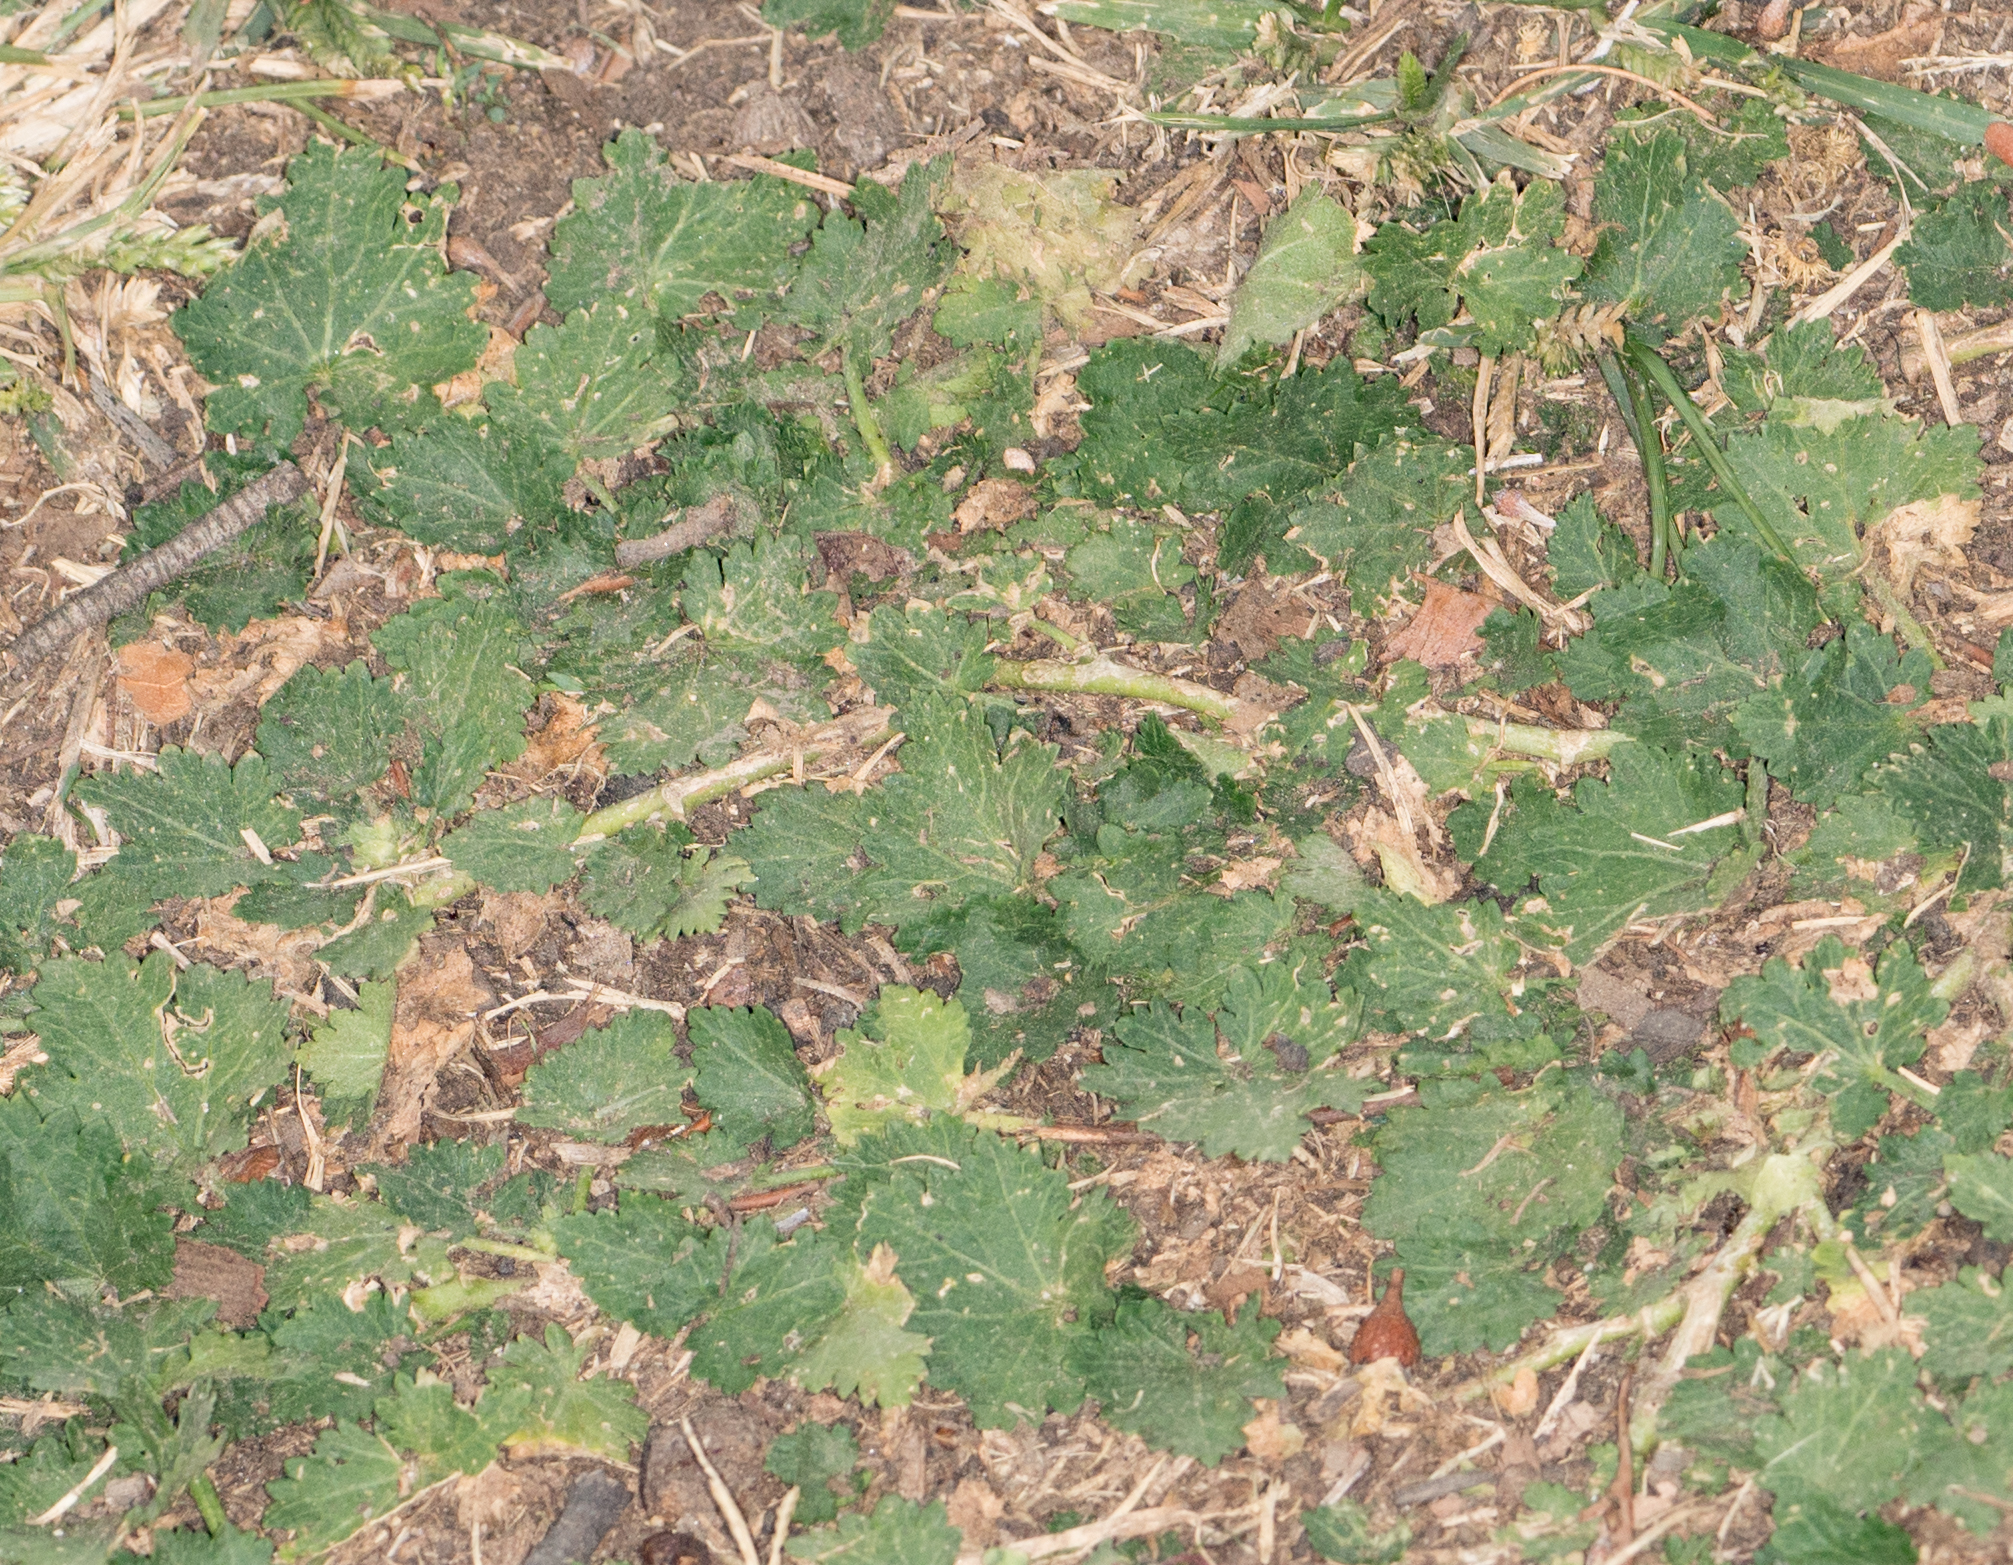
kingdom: Plantae
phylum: Tracheophyta
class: Magnoliopsida
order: Malvales
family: Malvaceae
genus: Modiola
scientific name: Modiola caroliniana
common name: Carolina bristlemallow
